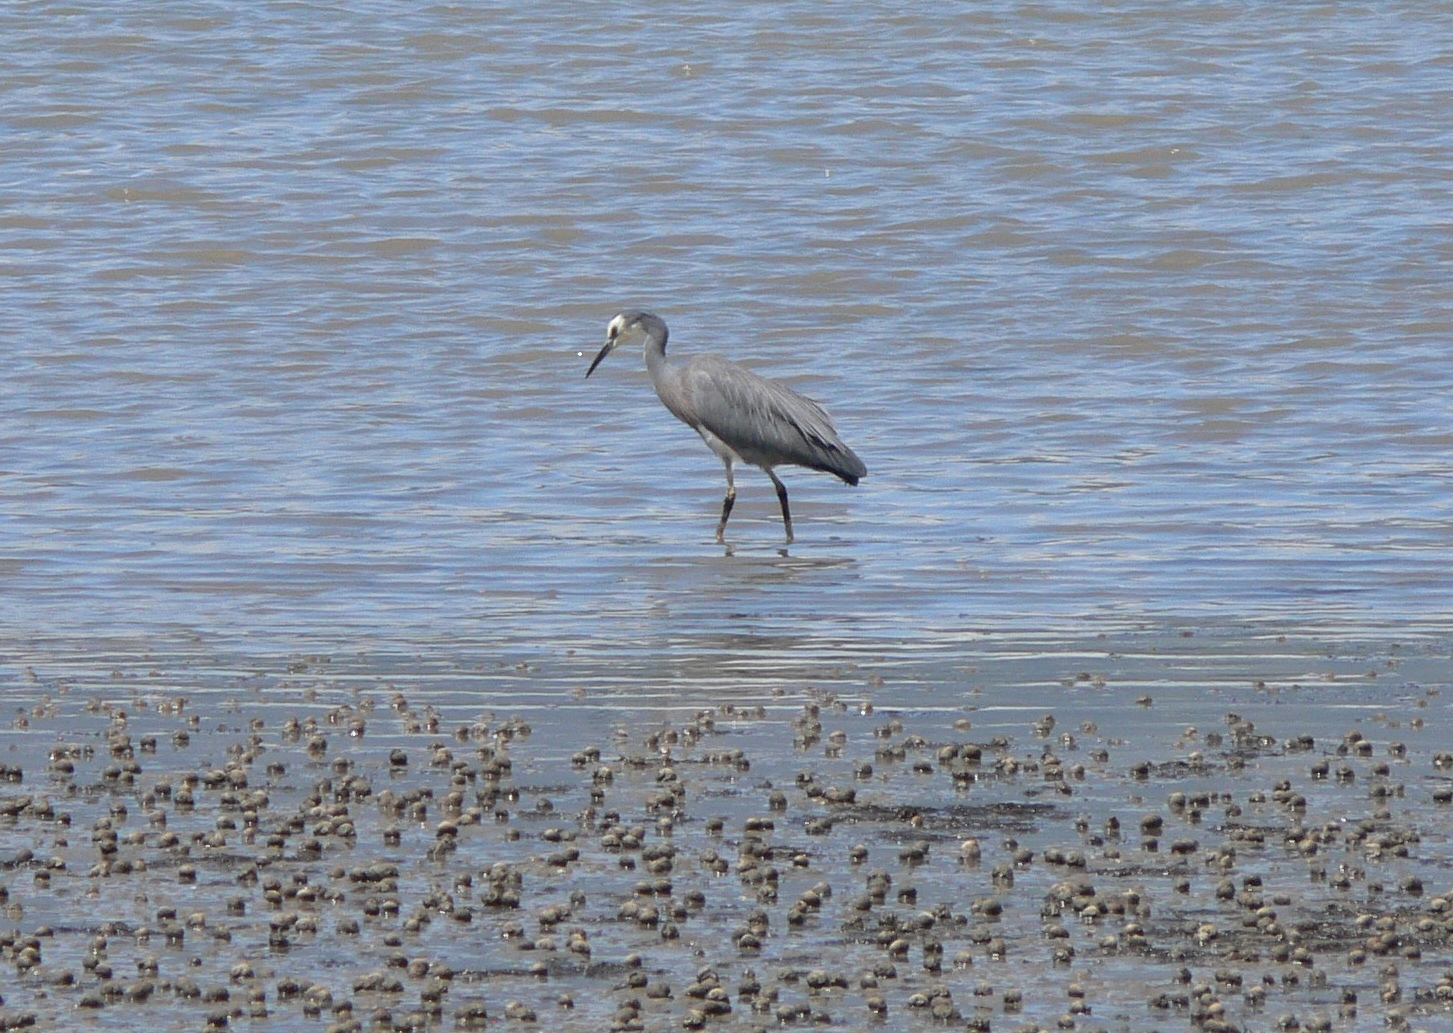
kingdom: Animalia
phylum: Chordata
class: Aves
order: Pelecaniformes
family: Ardeidae
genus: Egretta
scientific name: Egretta novaehollandiae
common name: White-faced heron
